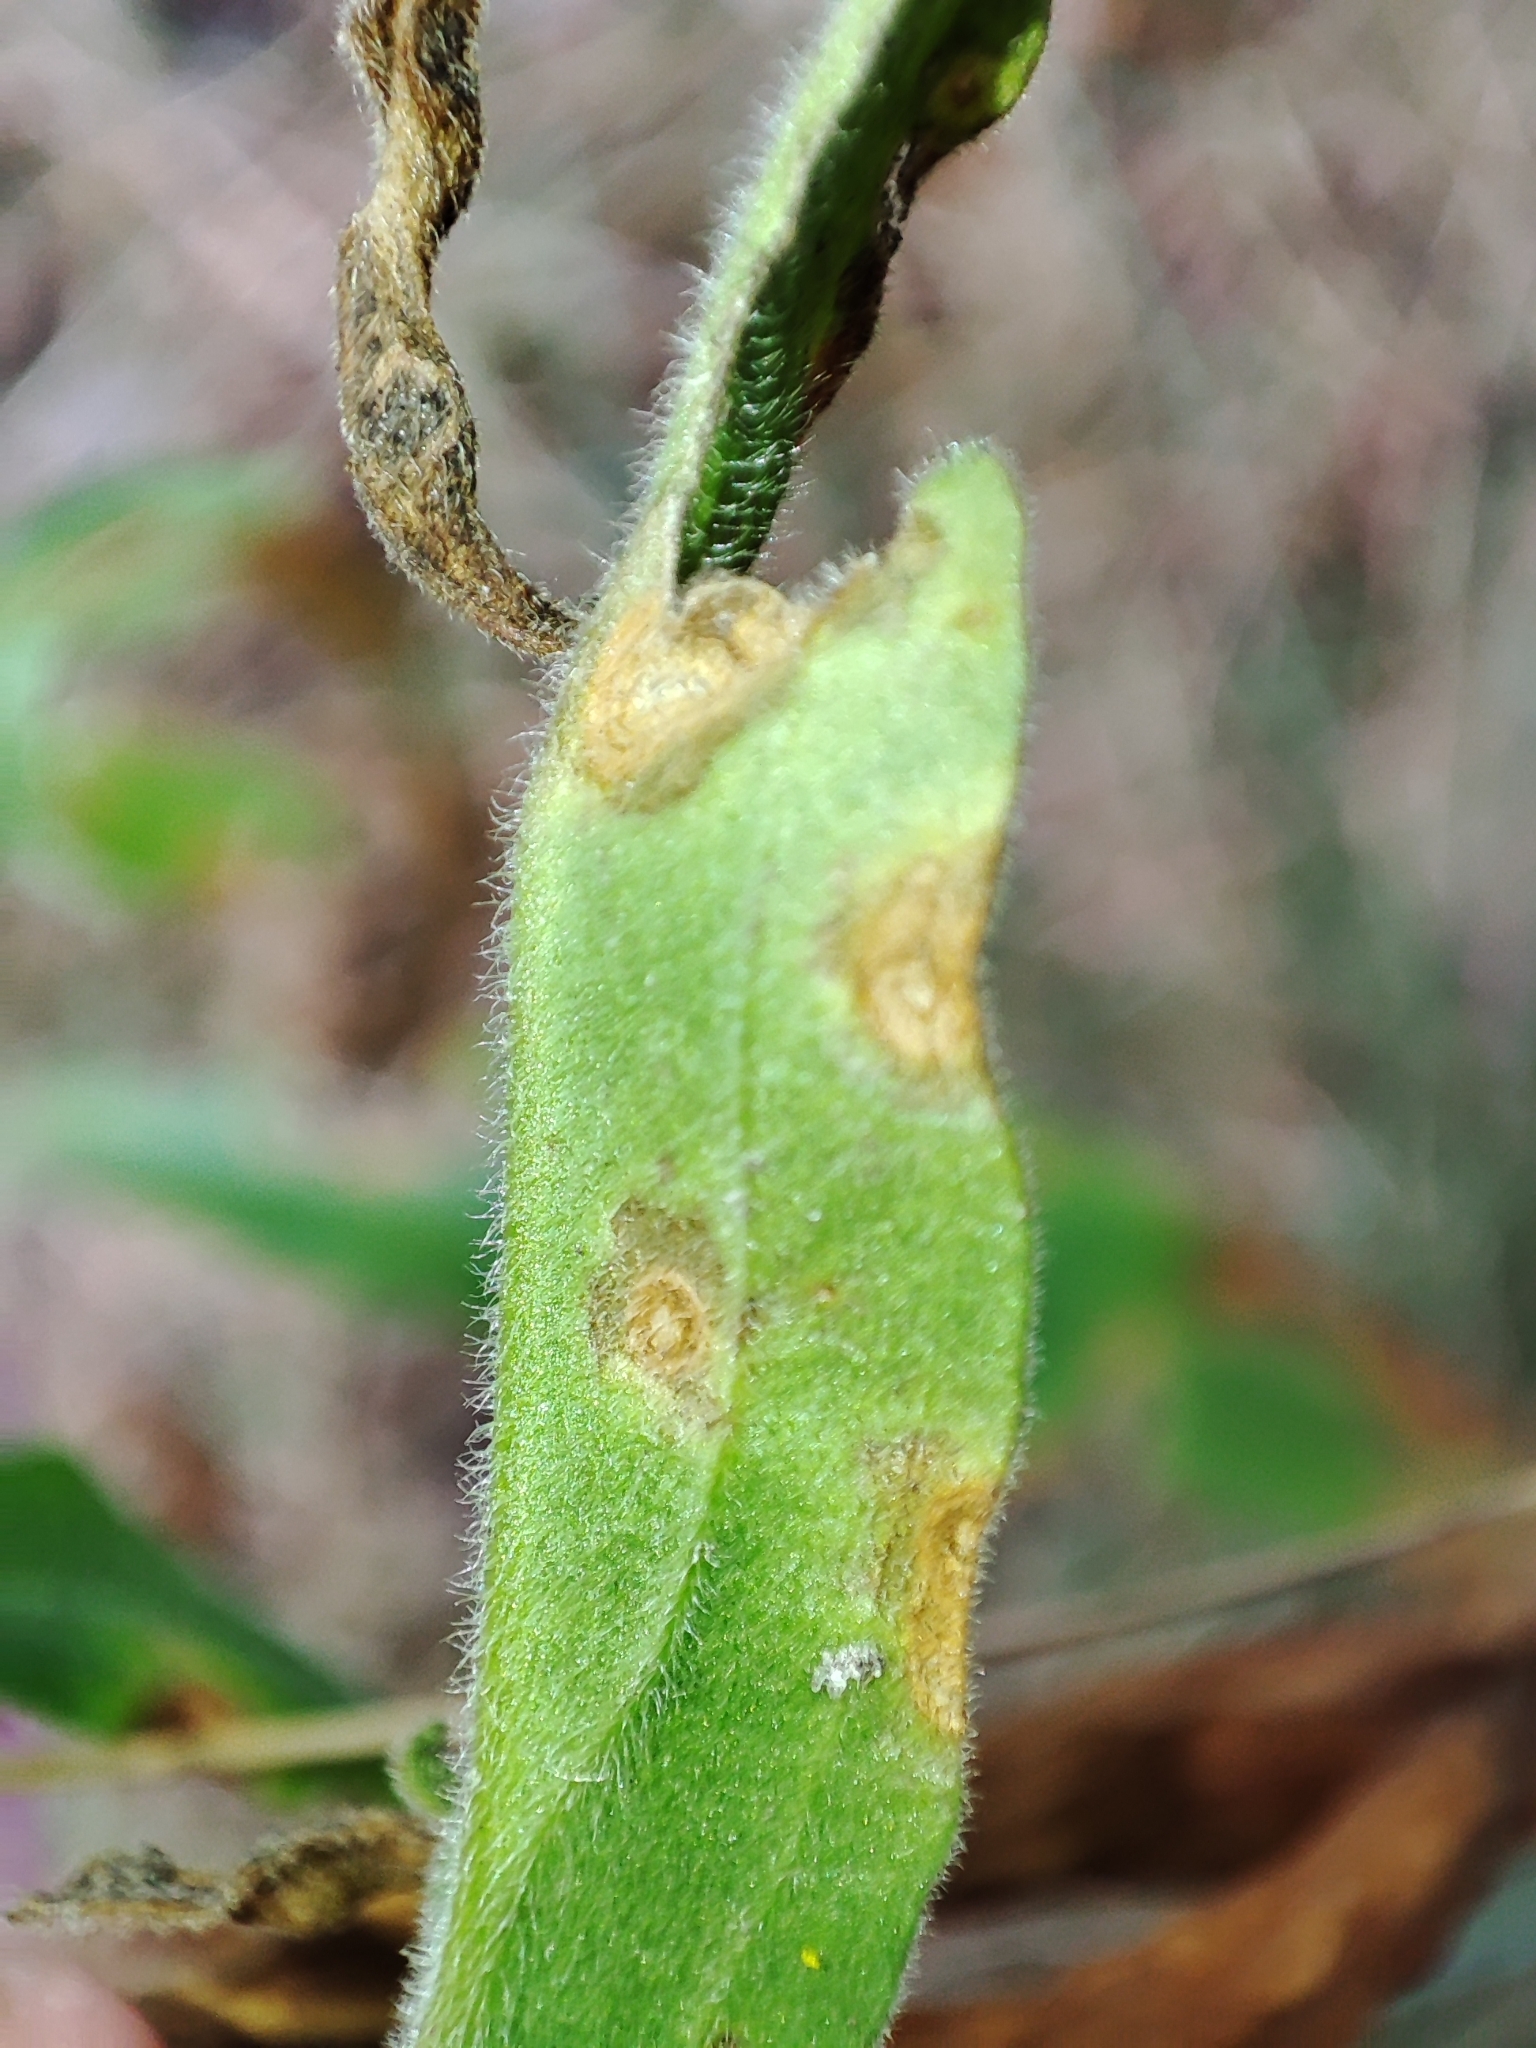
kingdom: Plantae
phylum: Tracheophyta
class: Magnoliopsida
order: Caryophyllales
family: Caryophyllaceae
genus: Silene
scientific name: Silene latifolia
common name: White campion
